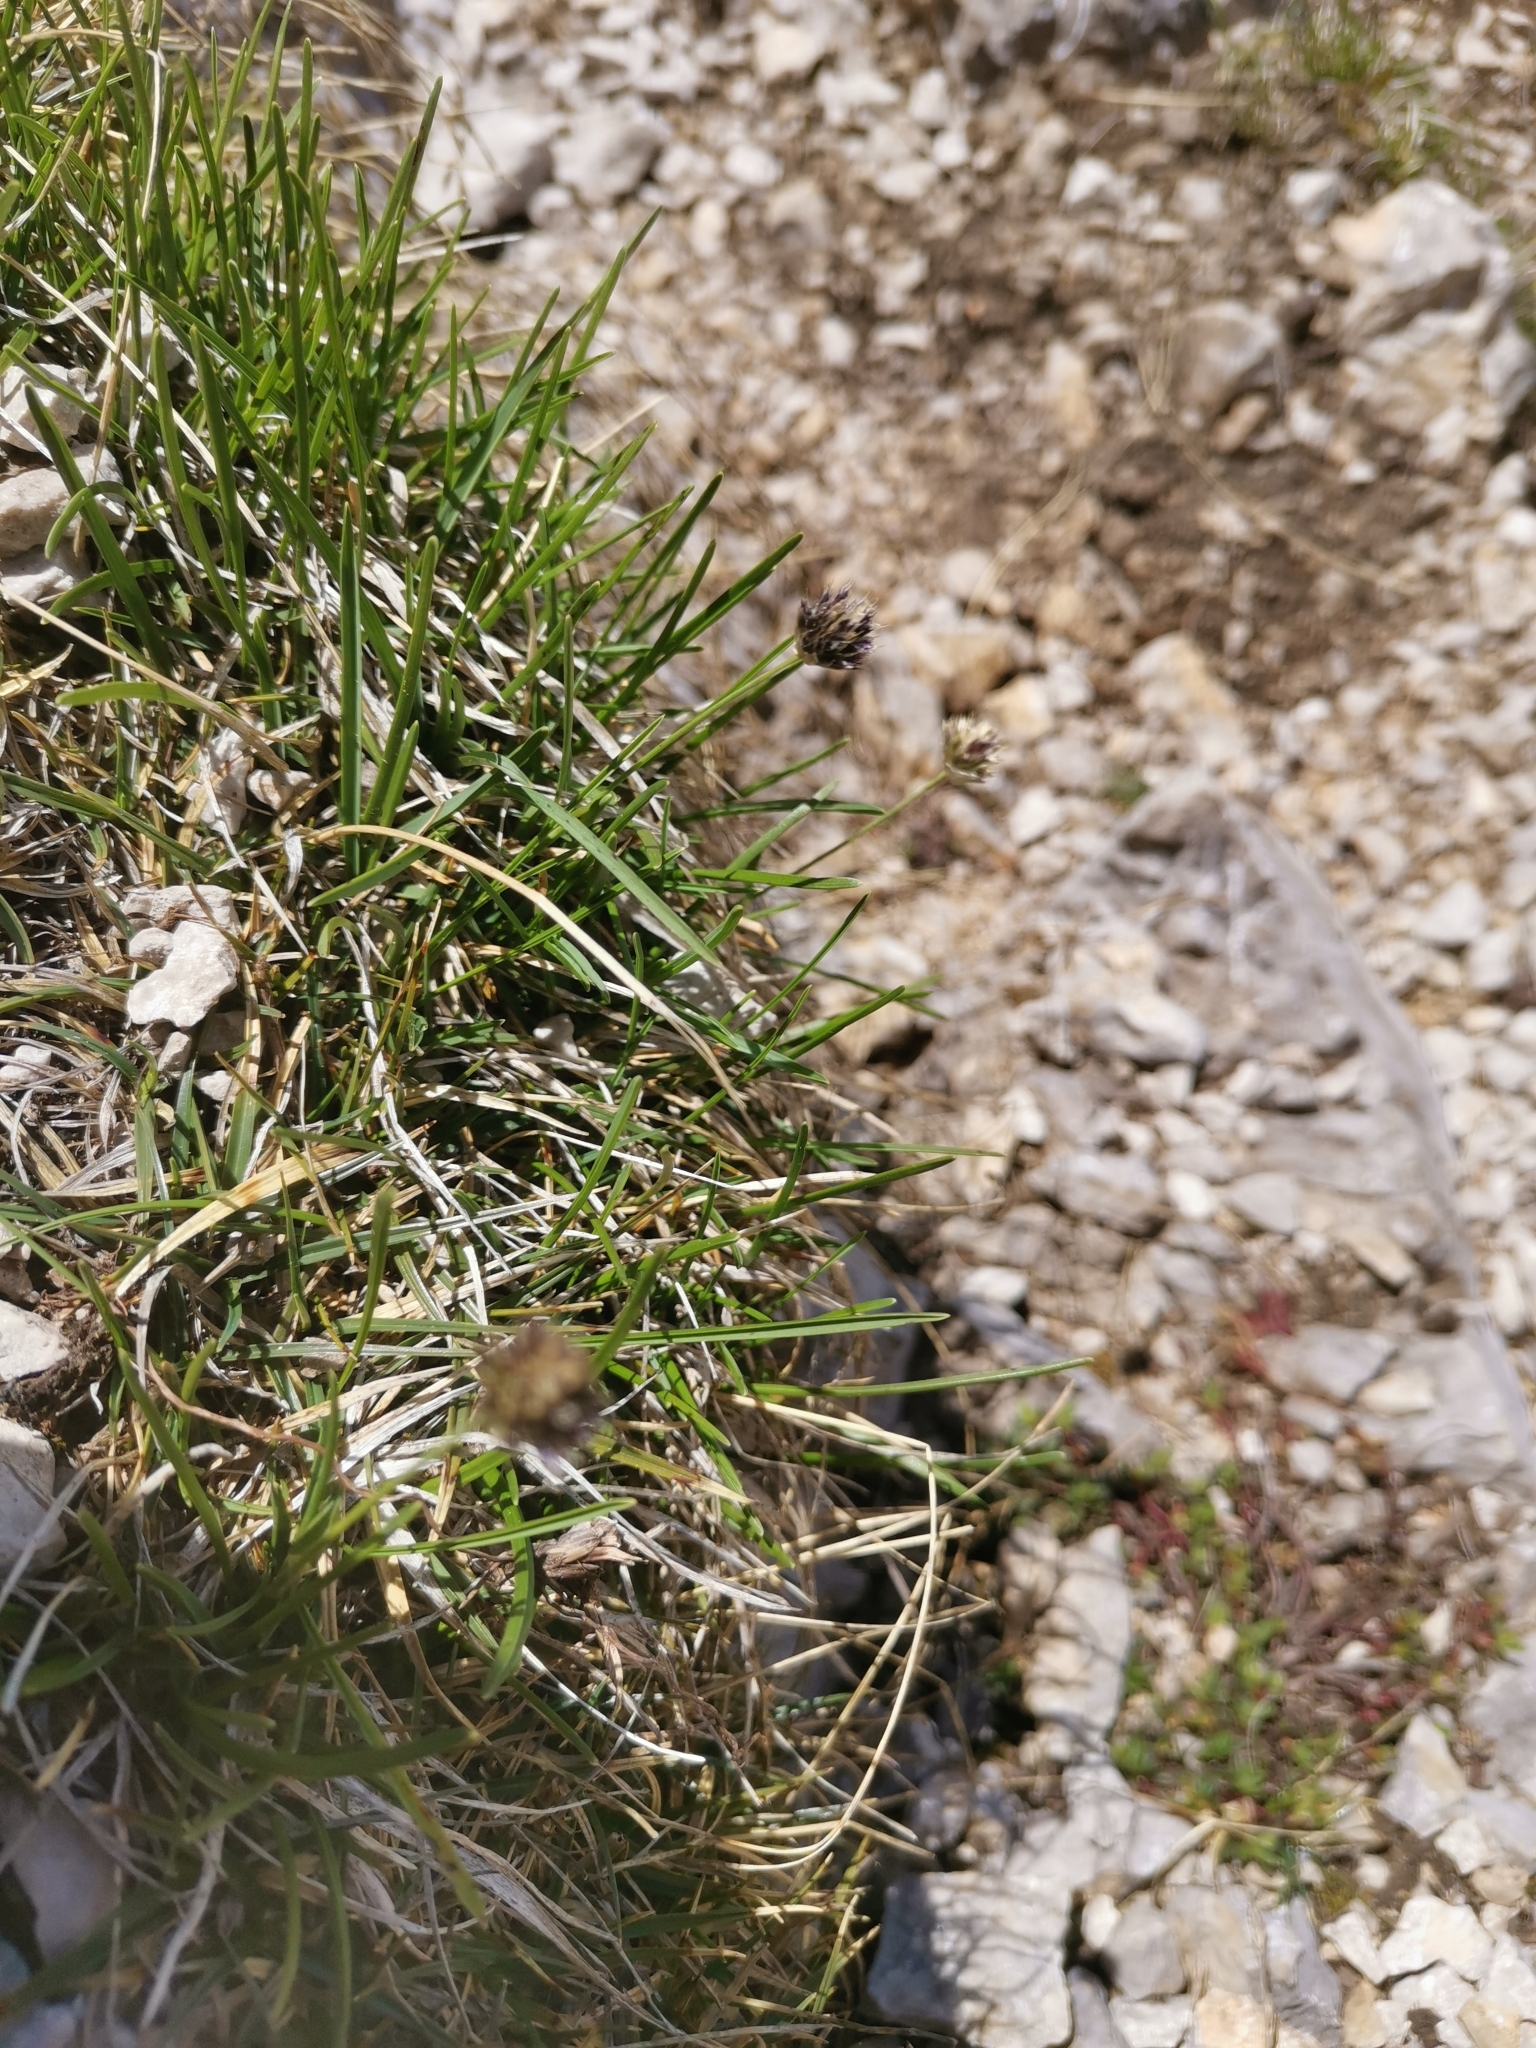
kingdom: Plantae
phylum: Tracheophyta
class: Liliopsida
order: Poales
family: Poaceae
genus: Sesleriella
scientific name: Sesleriella sphaerocephala
